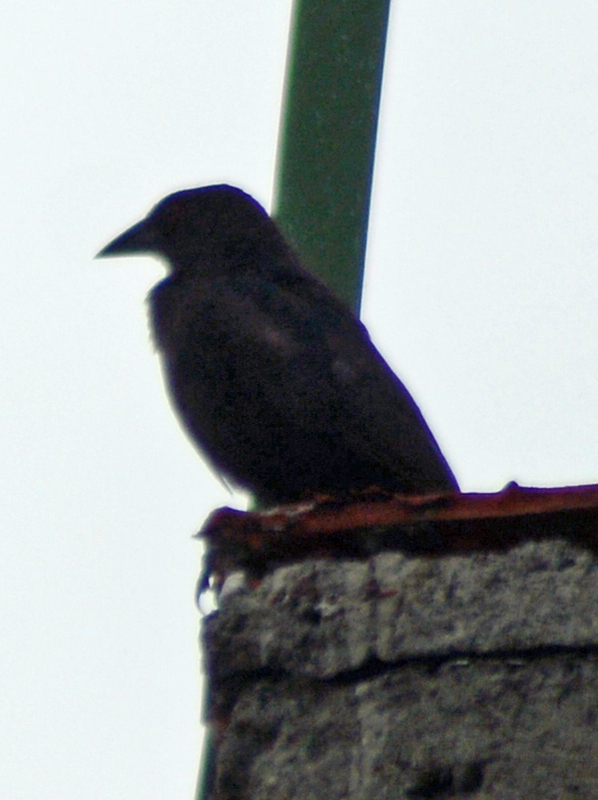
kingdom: Animalia
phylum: Chordata
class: Aves
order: Passeriformes
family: Icteridae
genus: Molothrus
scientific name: Molothrus aeneus
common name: Bronzed cowbird
